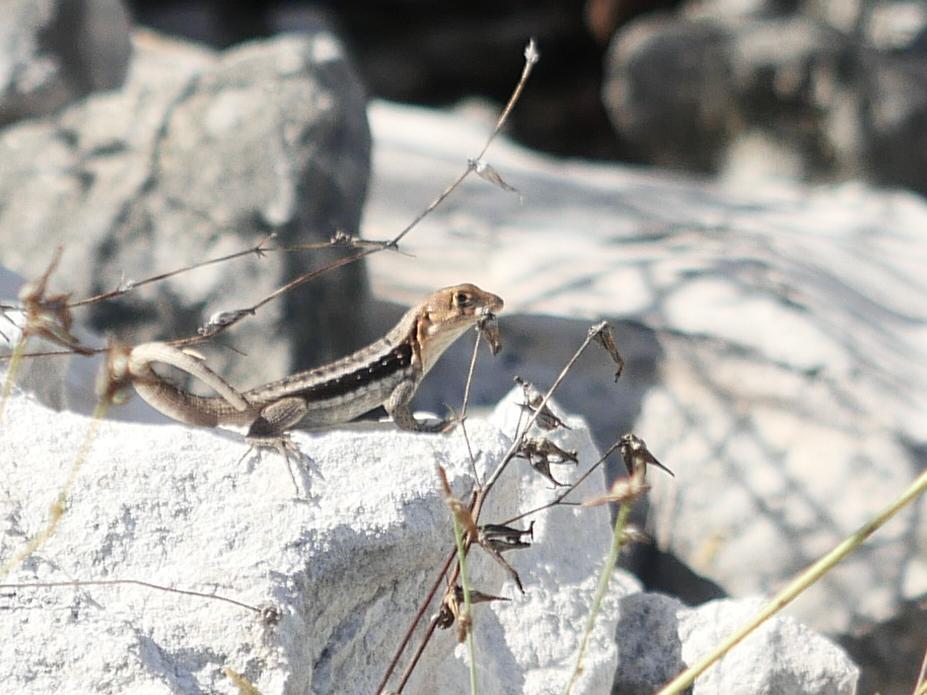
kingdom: Animalia
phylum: Chordata
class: Squamata
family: Leiocephalidae
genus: Leiocephalus
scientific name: Leiocephalus psammodromus
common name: Bastion cay curlytail lizard
